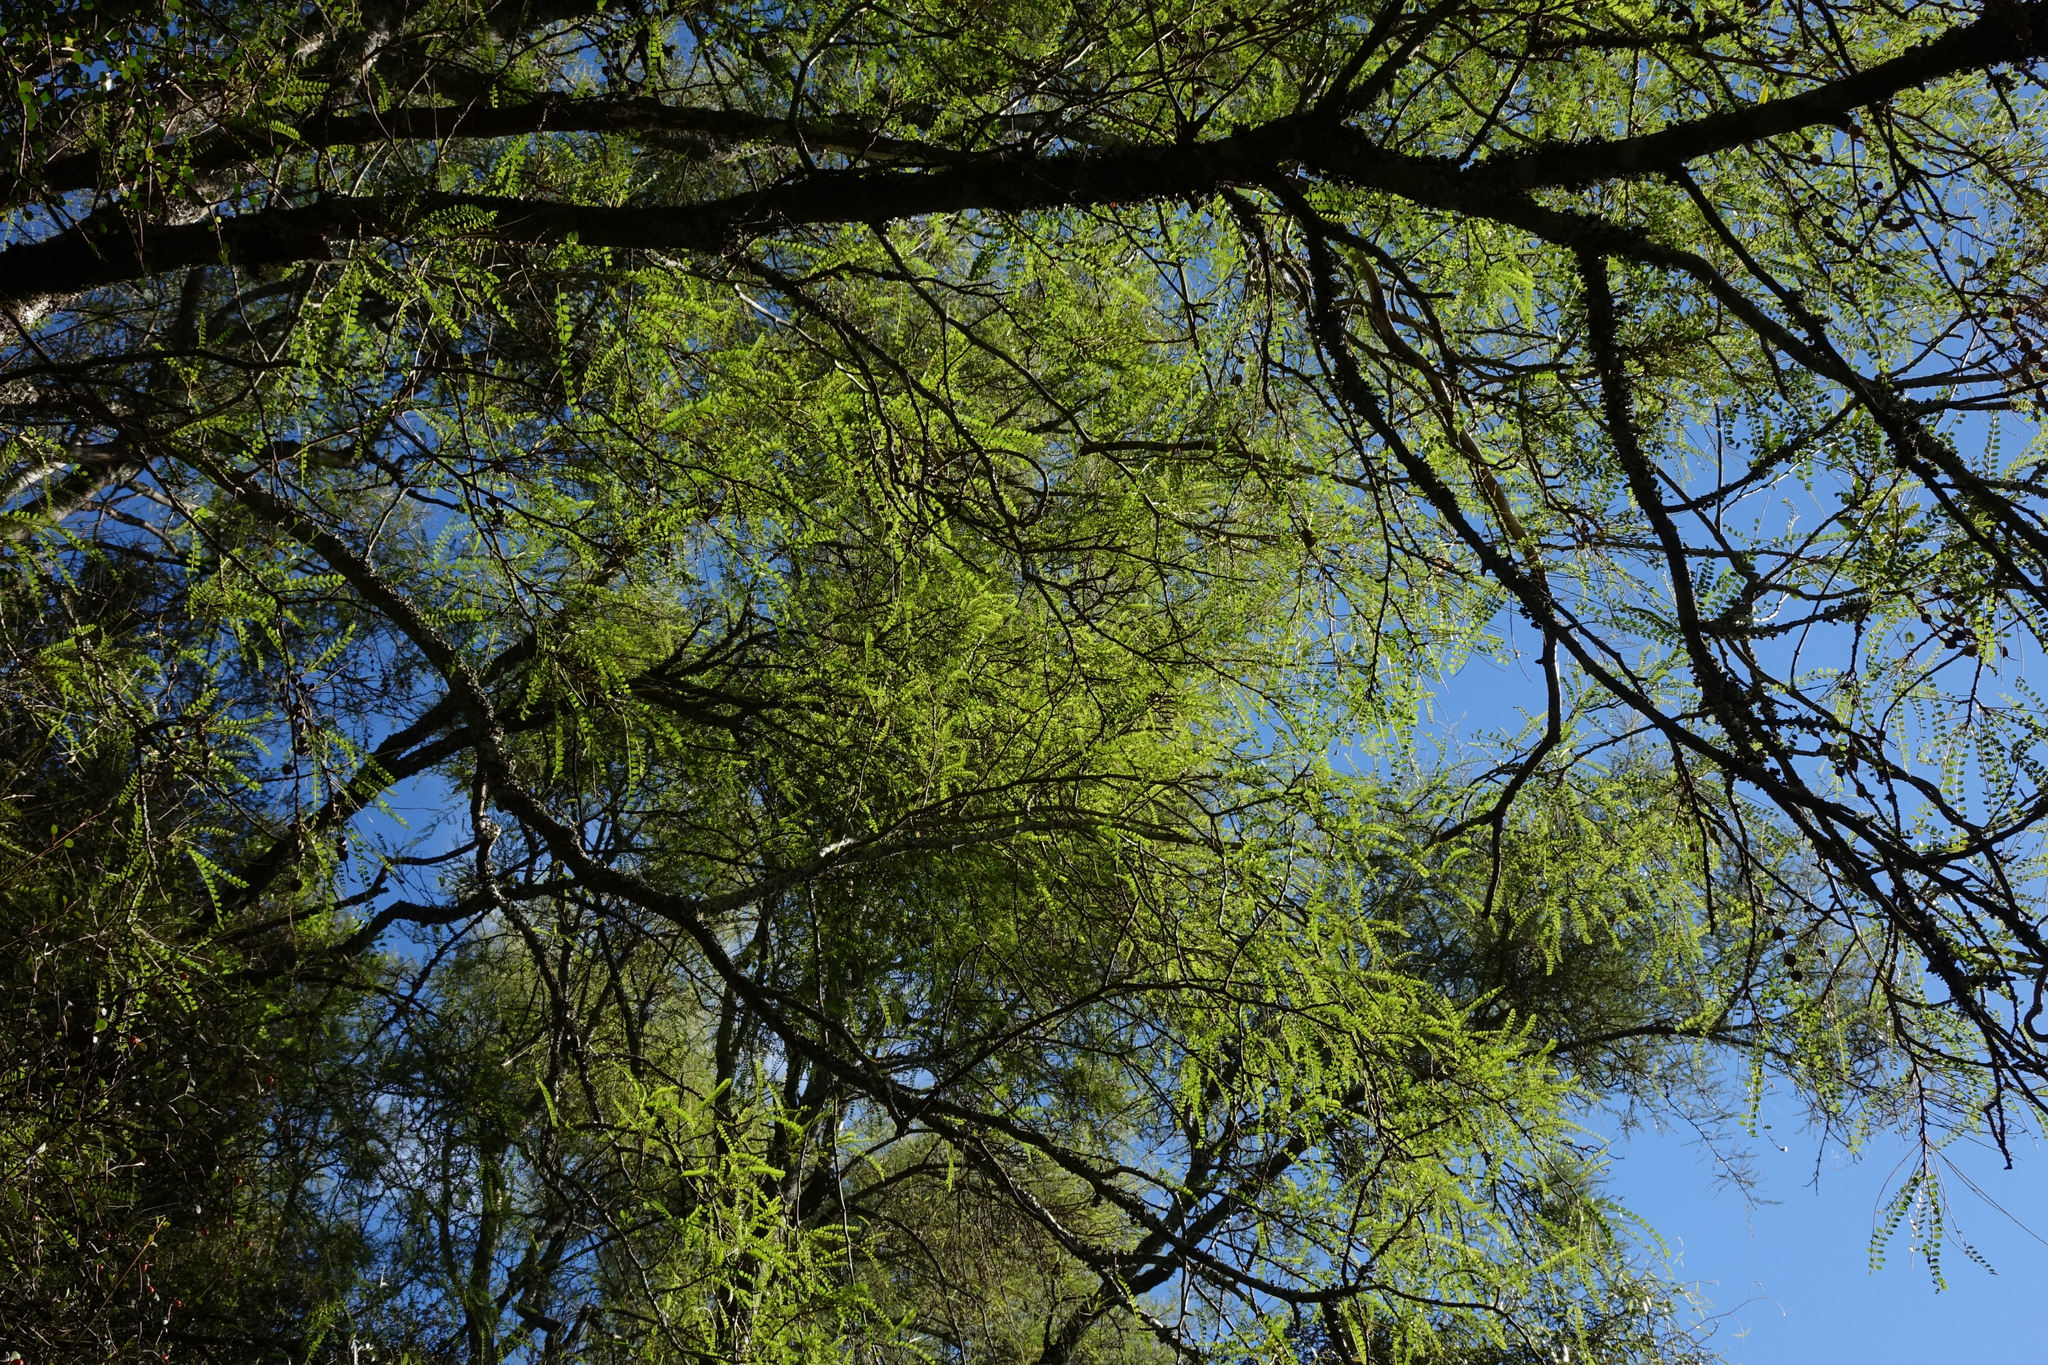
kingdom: Plantae
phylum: Tracheophyta
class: Magnoliopsida
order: Fabales
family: Fabaceae
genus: Sophora
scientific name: Sophora microphylla
